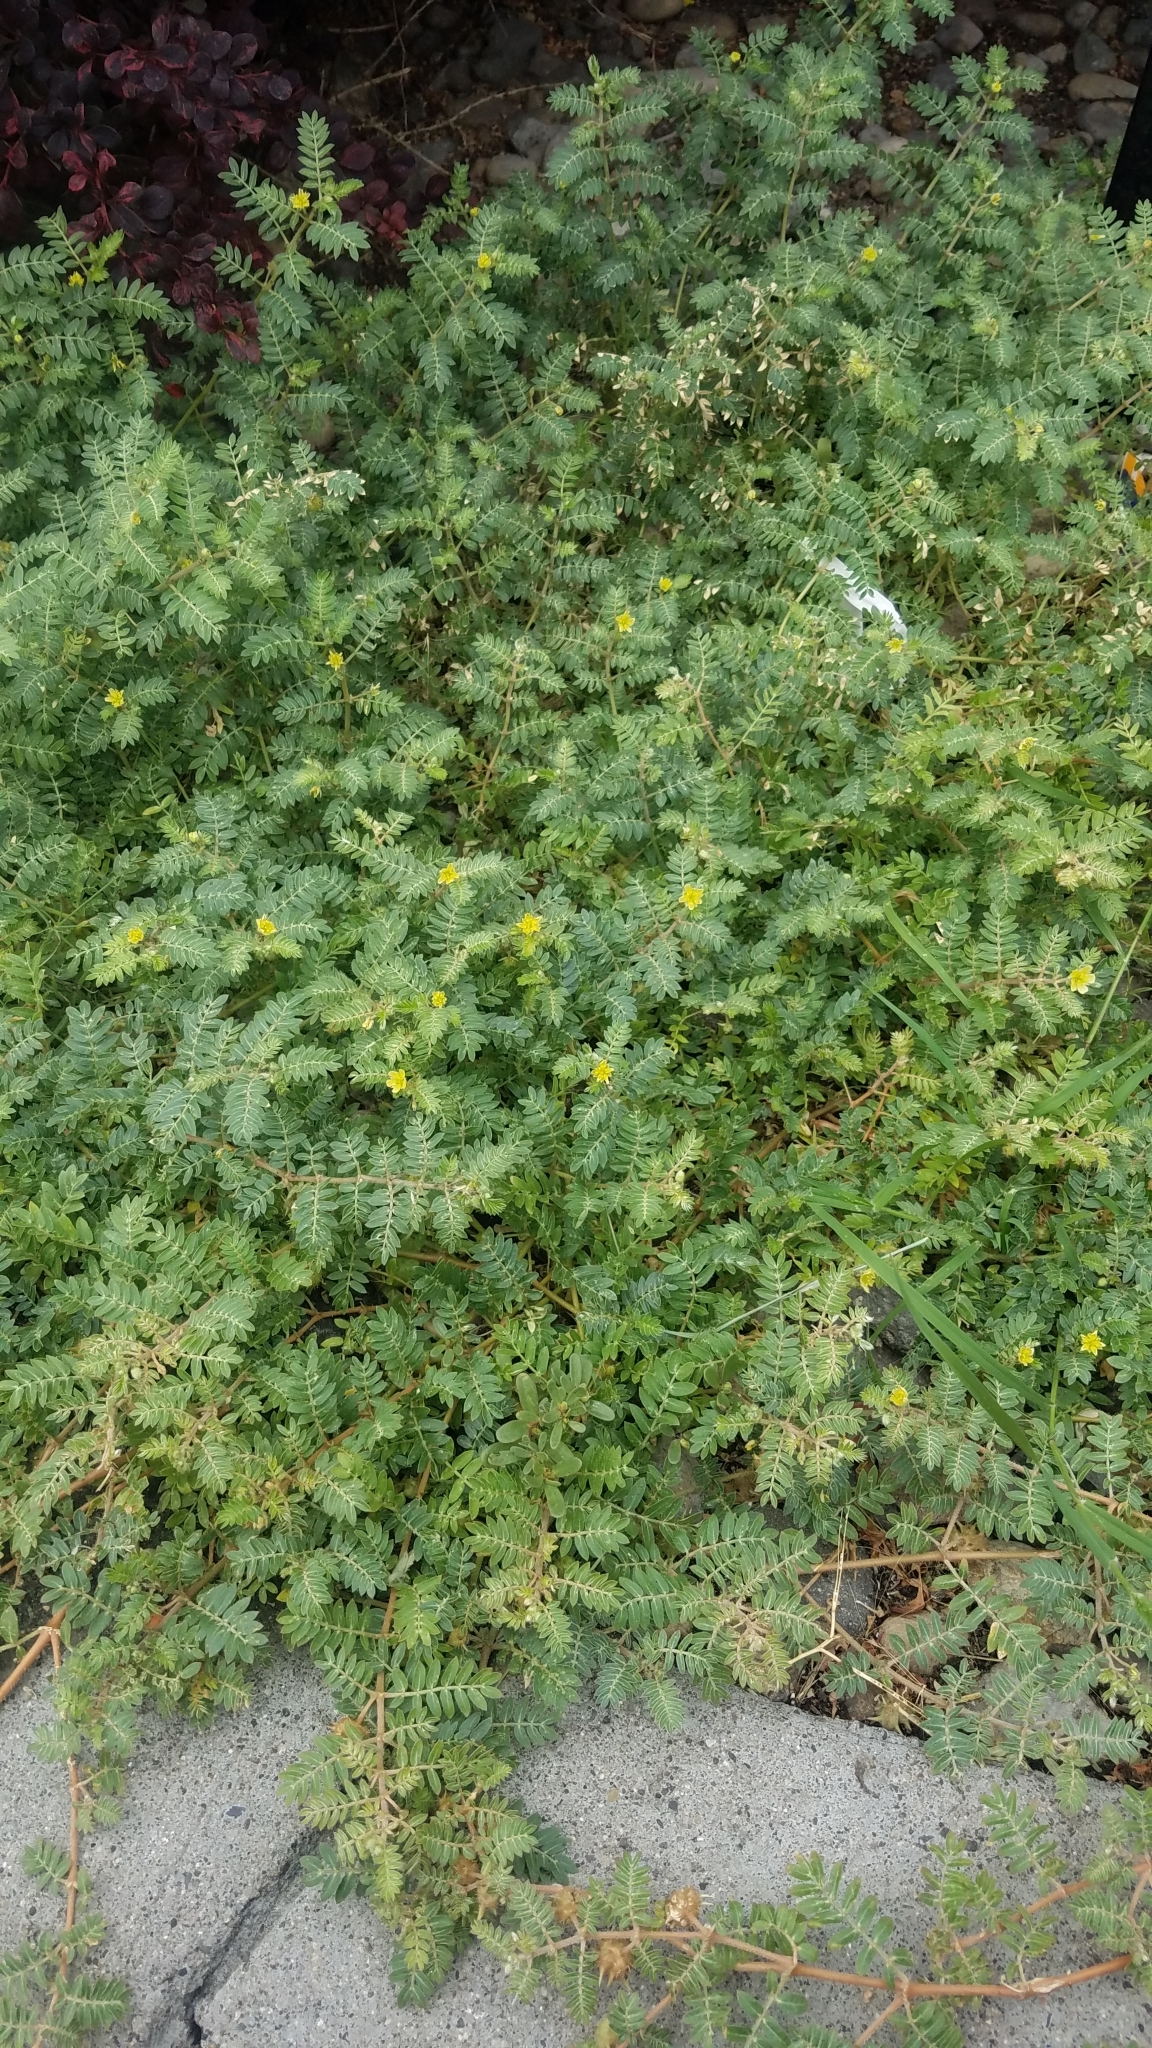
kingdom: Plantae
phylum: Tracheophyta
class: Magnoliopsida
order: Zygophyllales
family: Zygophyllaceae
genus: Tribulus
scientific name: Tribulus terrestris
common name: Puncturevine
